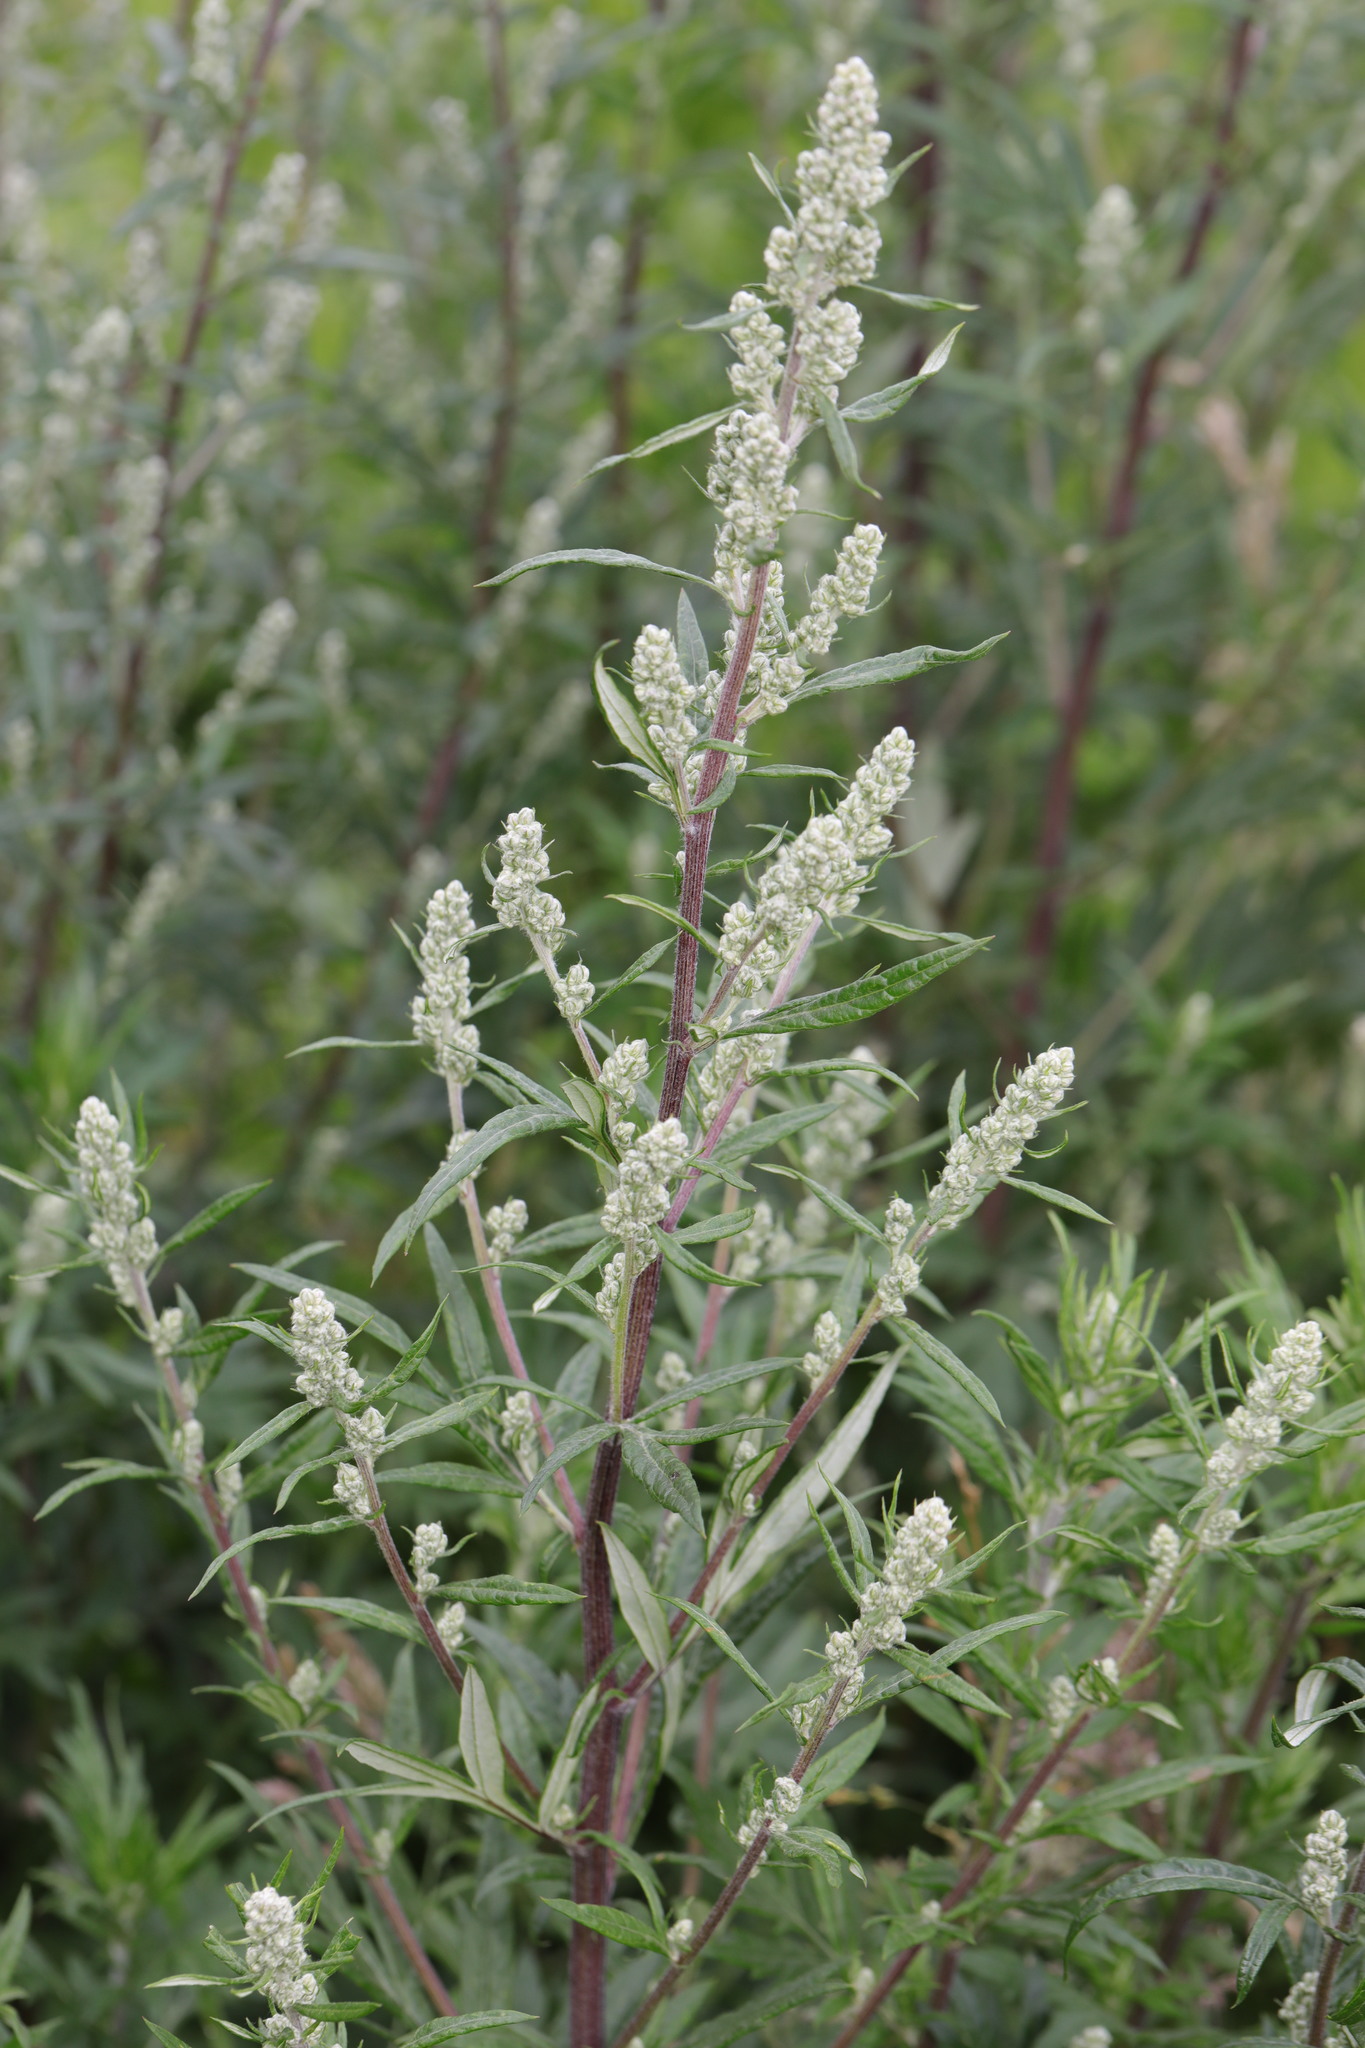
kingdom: Plantae
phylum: Tracheophyta
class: Magnoliopsida
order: Asterales
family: Asteraceae
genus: Artemisia
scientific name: Artemisia vulgaris
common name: Mugwort
